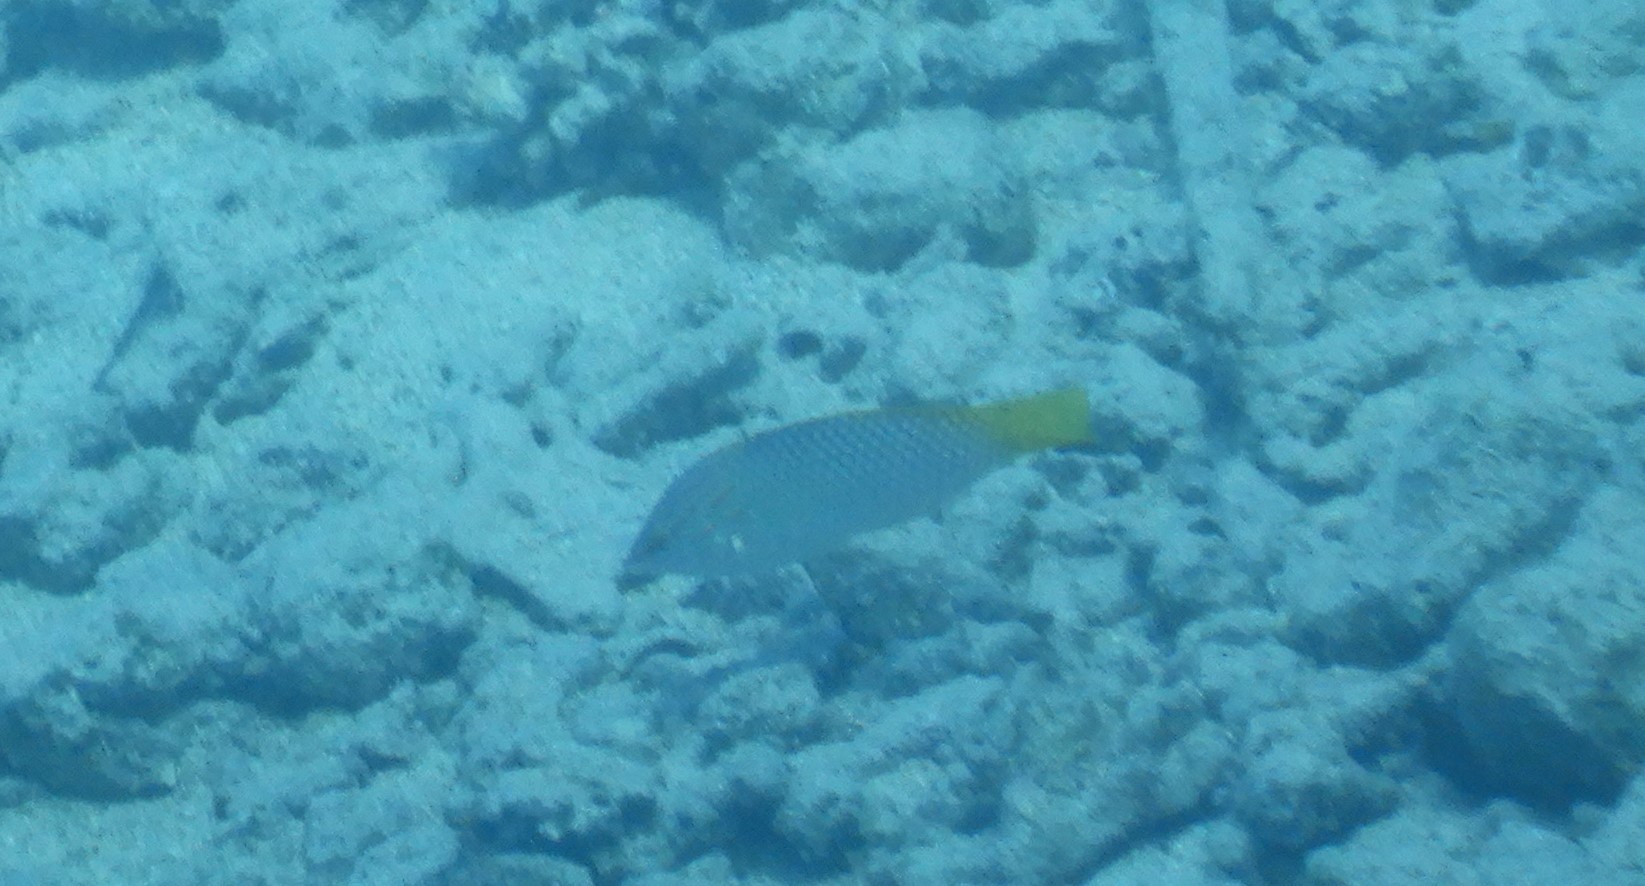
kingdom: Animalia
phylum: Chordata
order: Perciformes
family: Labridae
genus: Halichoeres
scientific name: Halichoeres hortulanus
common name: Checkerboard wrasse
